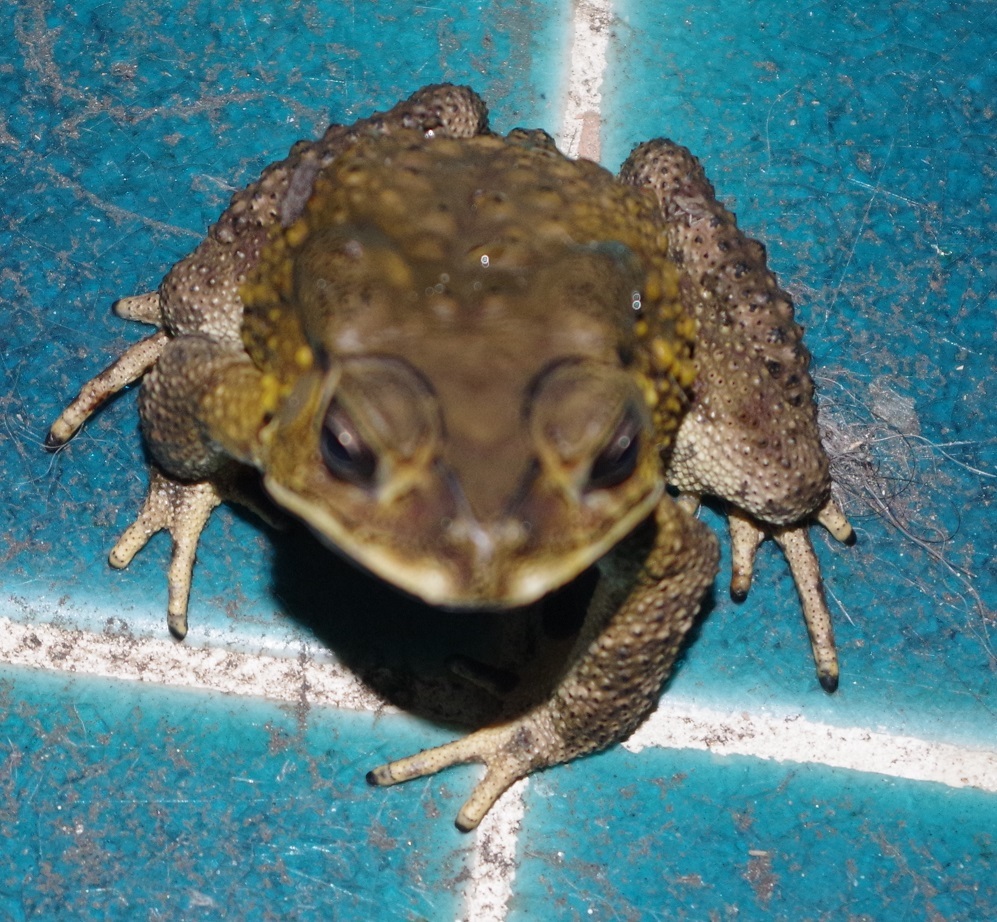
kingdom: Animalia
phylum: Chordata
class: Amphibia
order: Anura
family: Bufonidae
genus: Duttaphrynus
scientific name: Duttaphrynus melanostictus
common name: Common sunda toad
